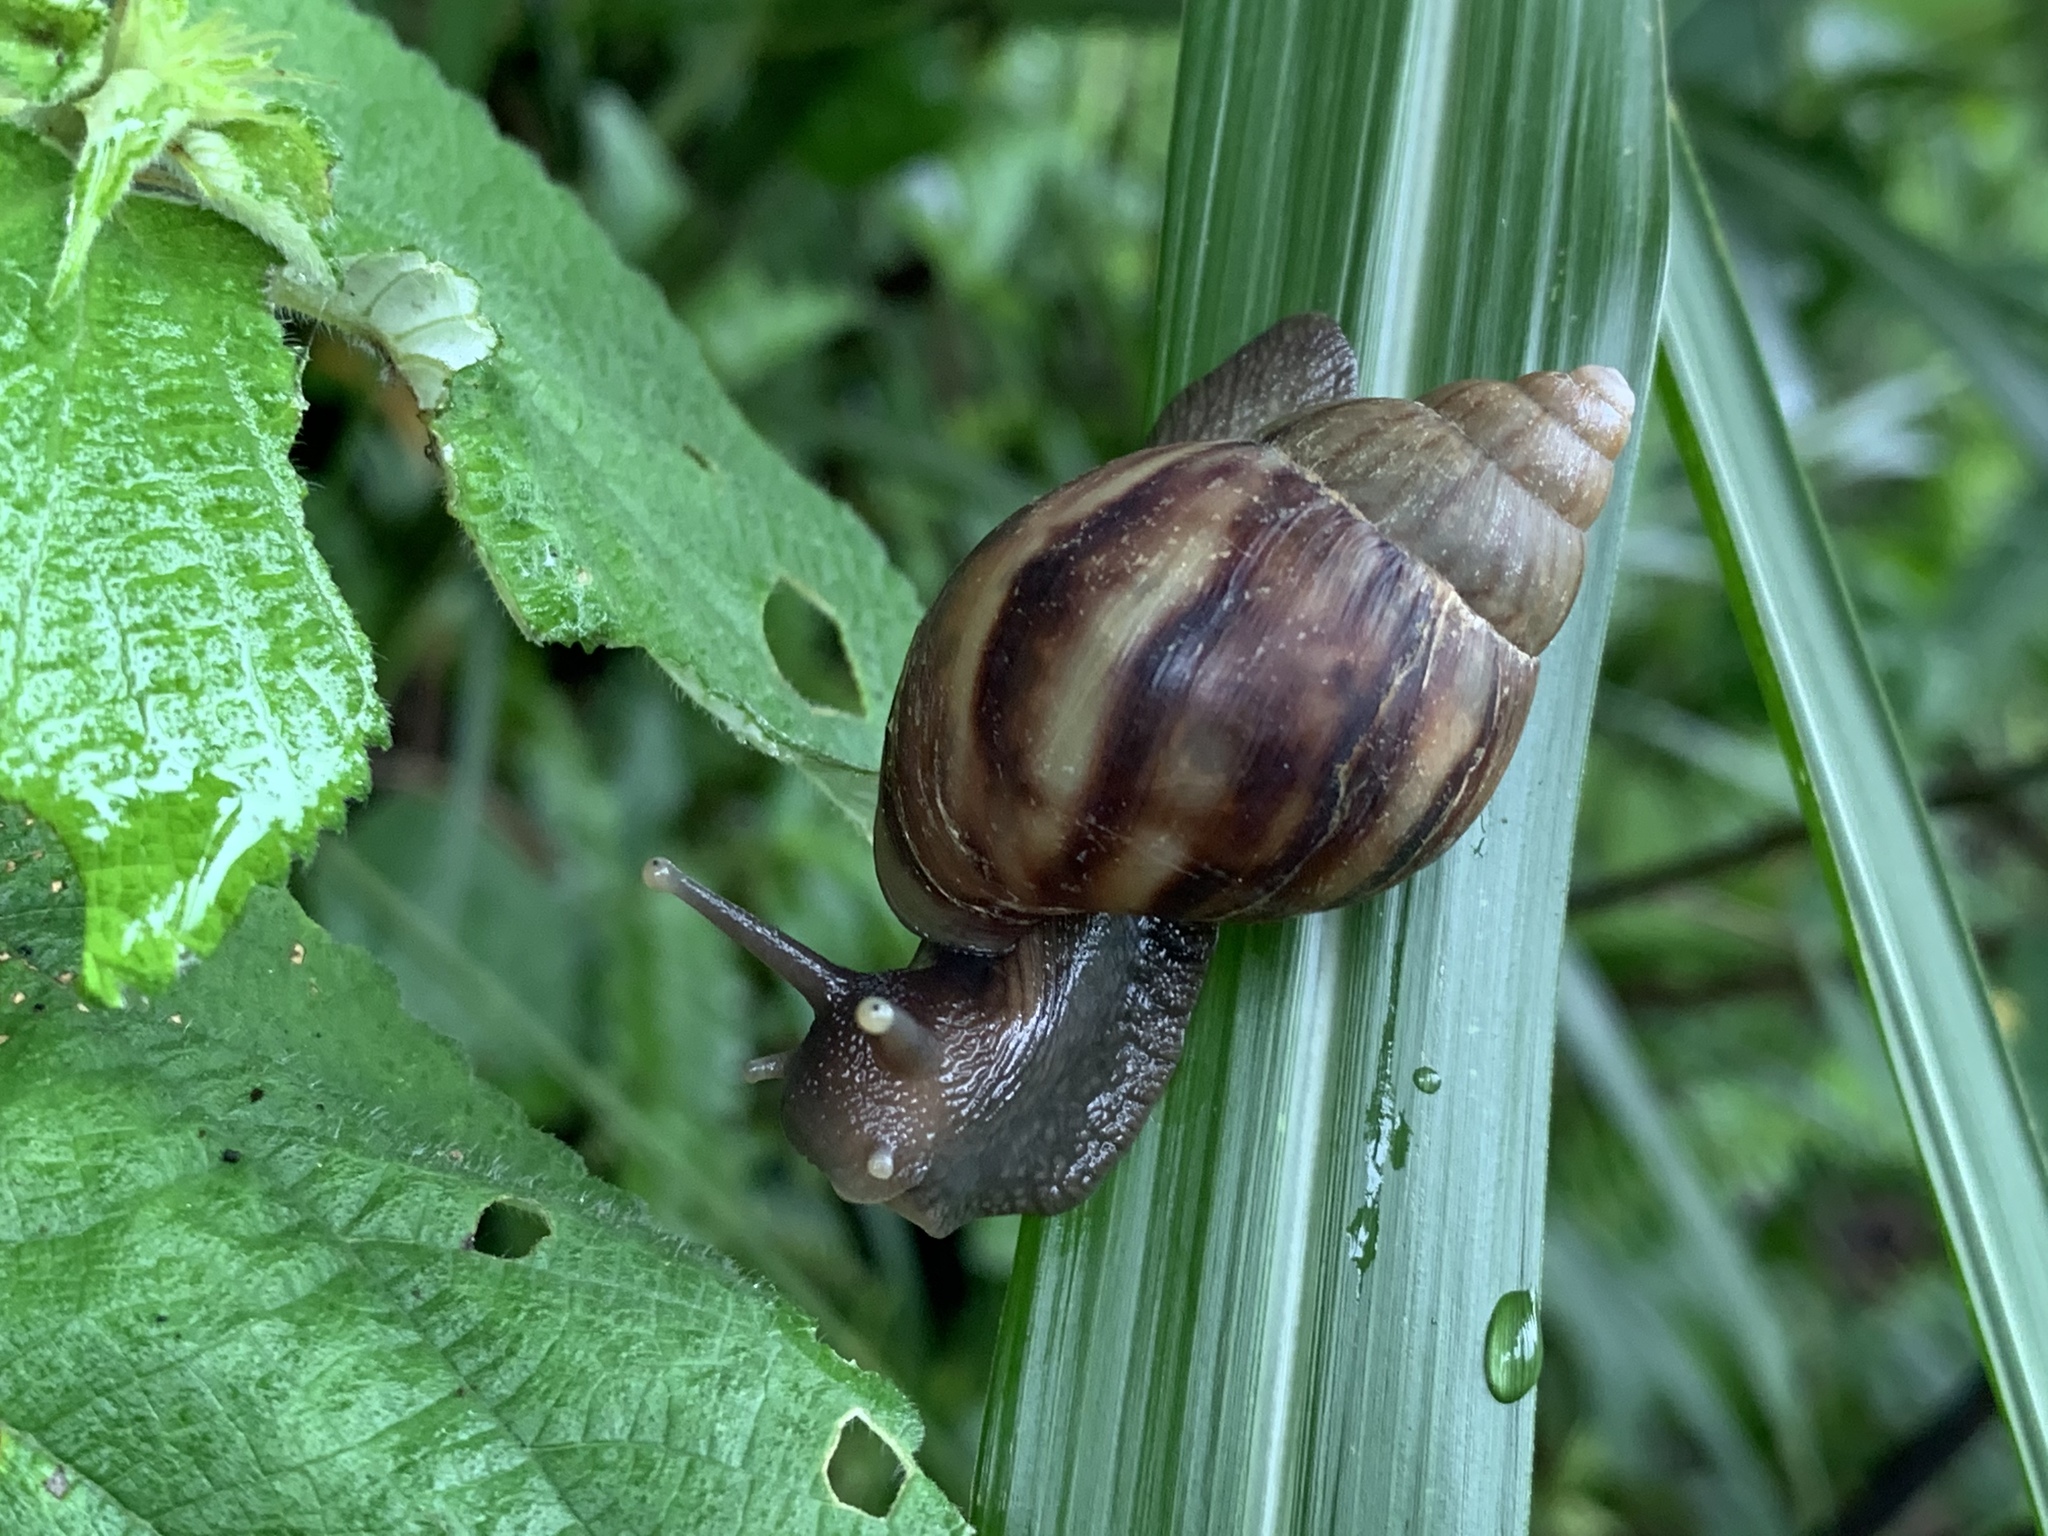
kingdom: Animalia
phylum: Mollusca
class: Gastropoda
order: Stylommatophora
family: Achatinidae
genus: Lissachatina
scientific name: Lissachatina fulica
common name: Giant african snail
